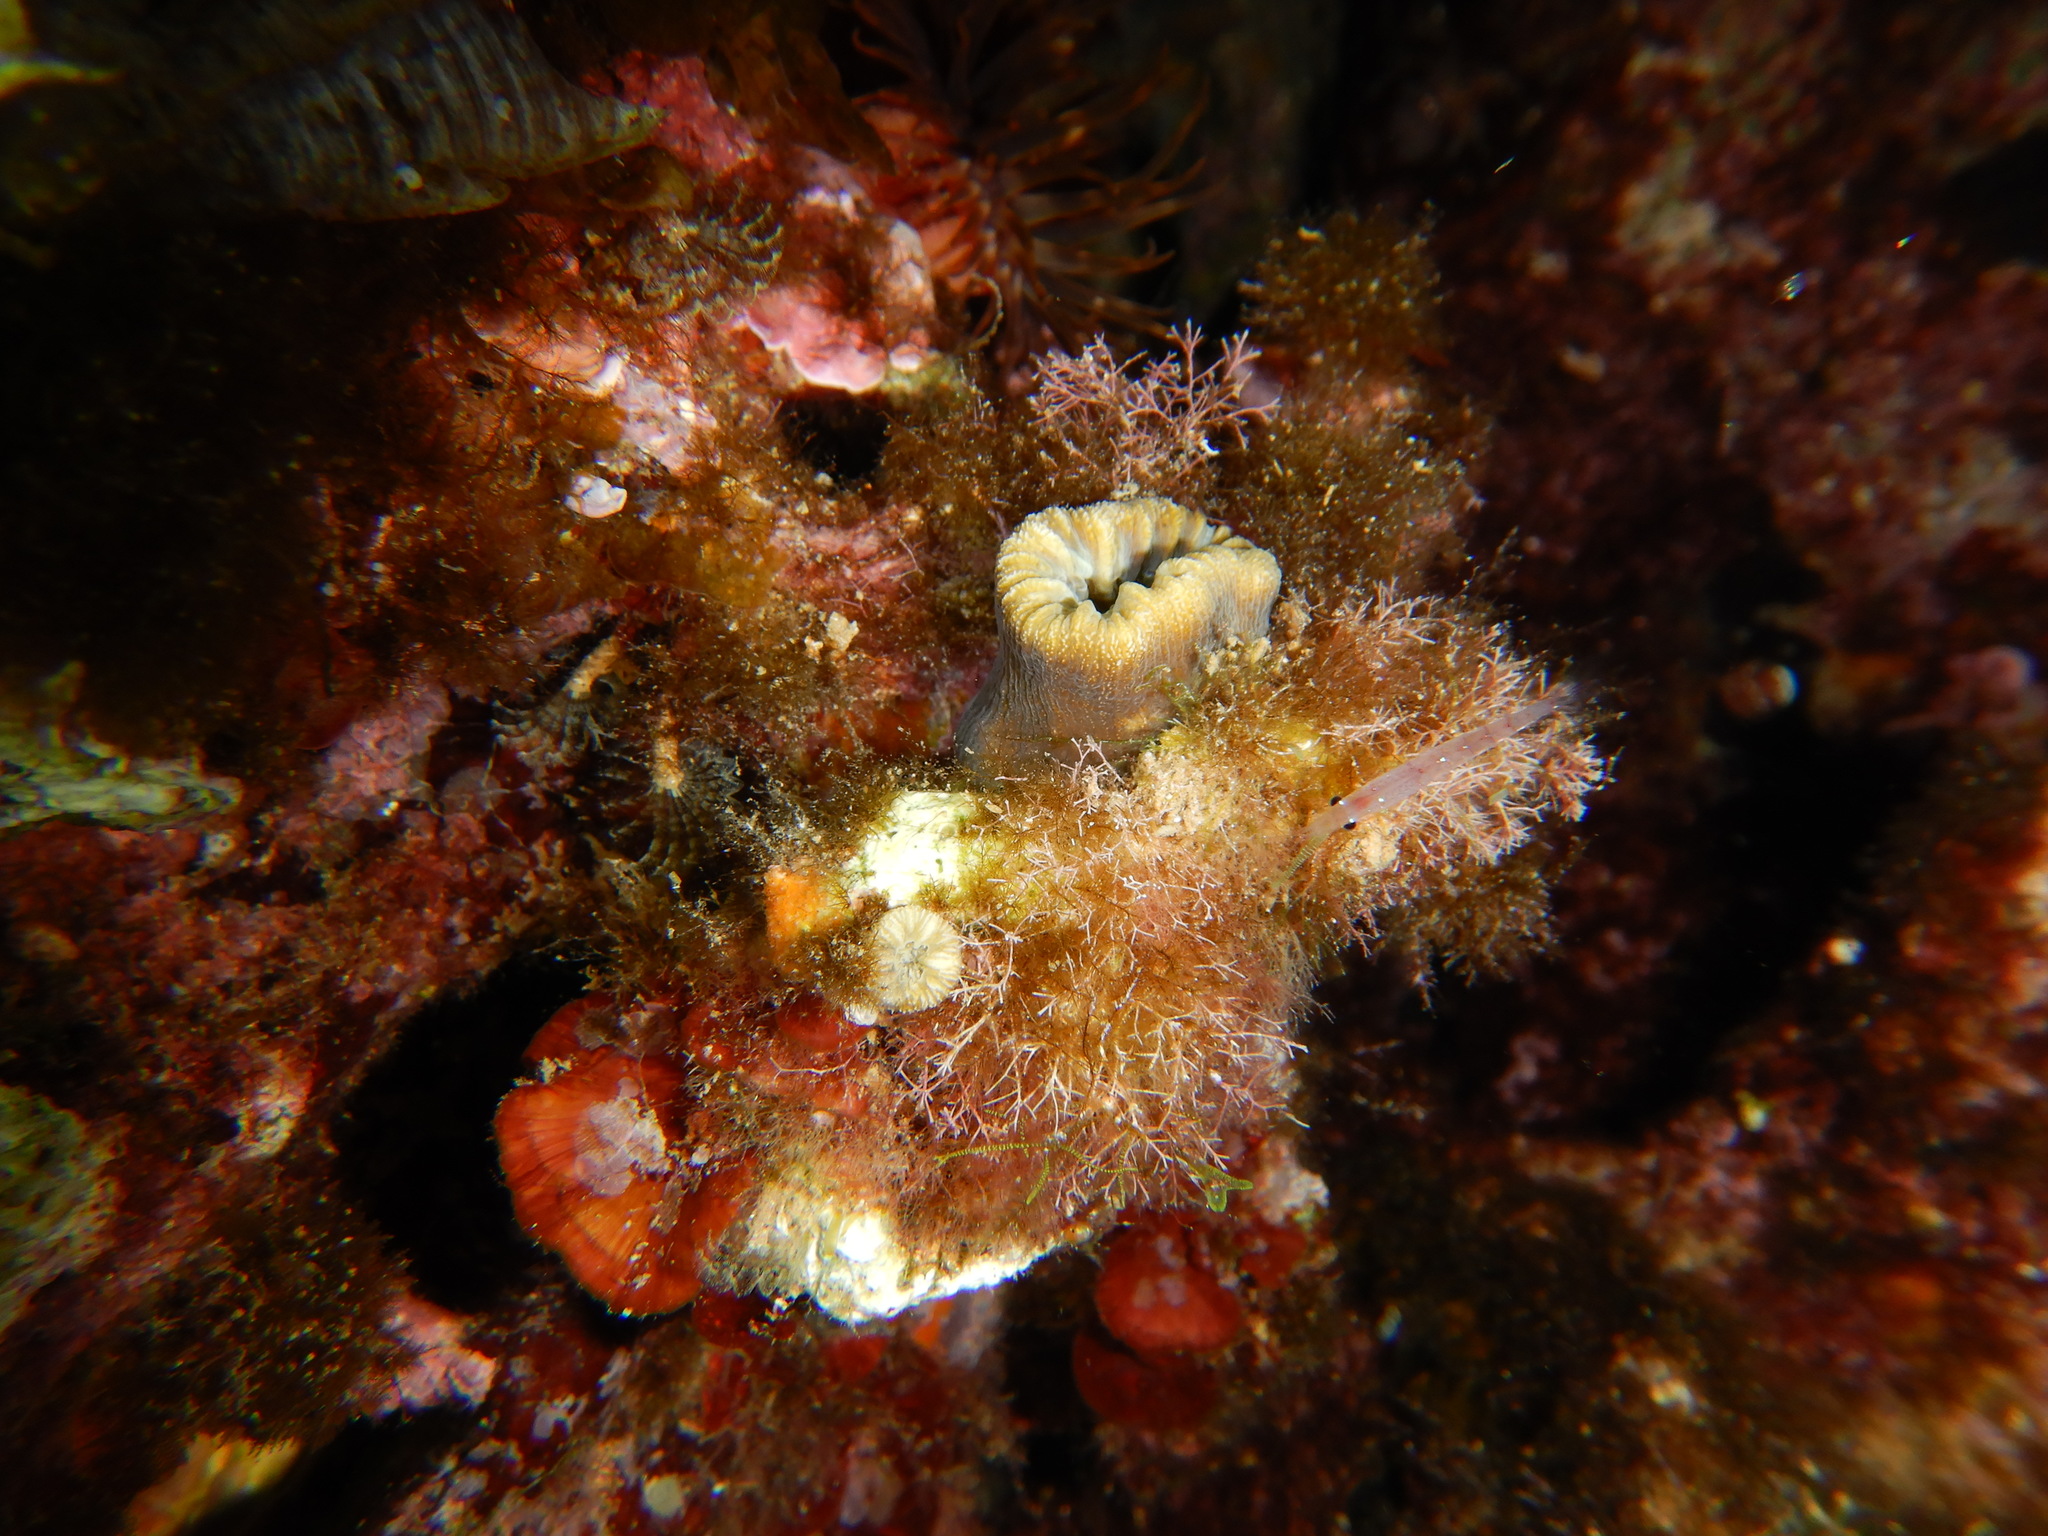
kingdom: Animalia
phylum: Cnidaria
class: Anthozoa
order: Scleractinia
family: Dendrophylliidae
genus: Balanophyllia
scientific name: Balanophyllia europaea
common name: Scarlet coral
